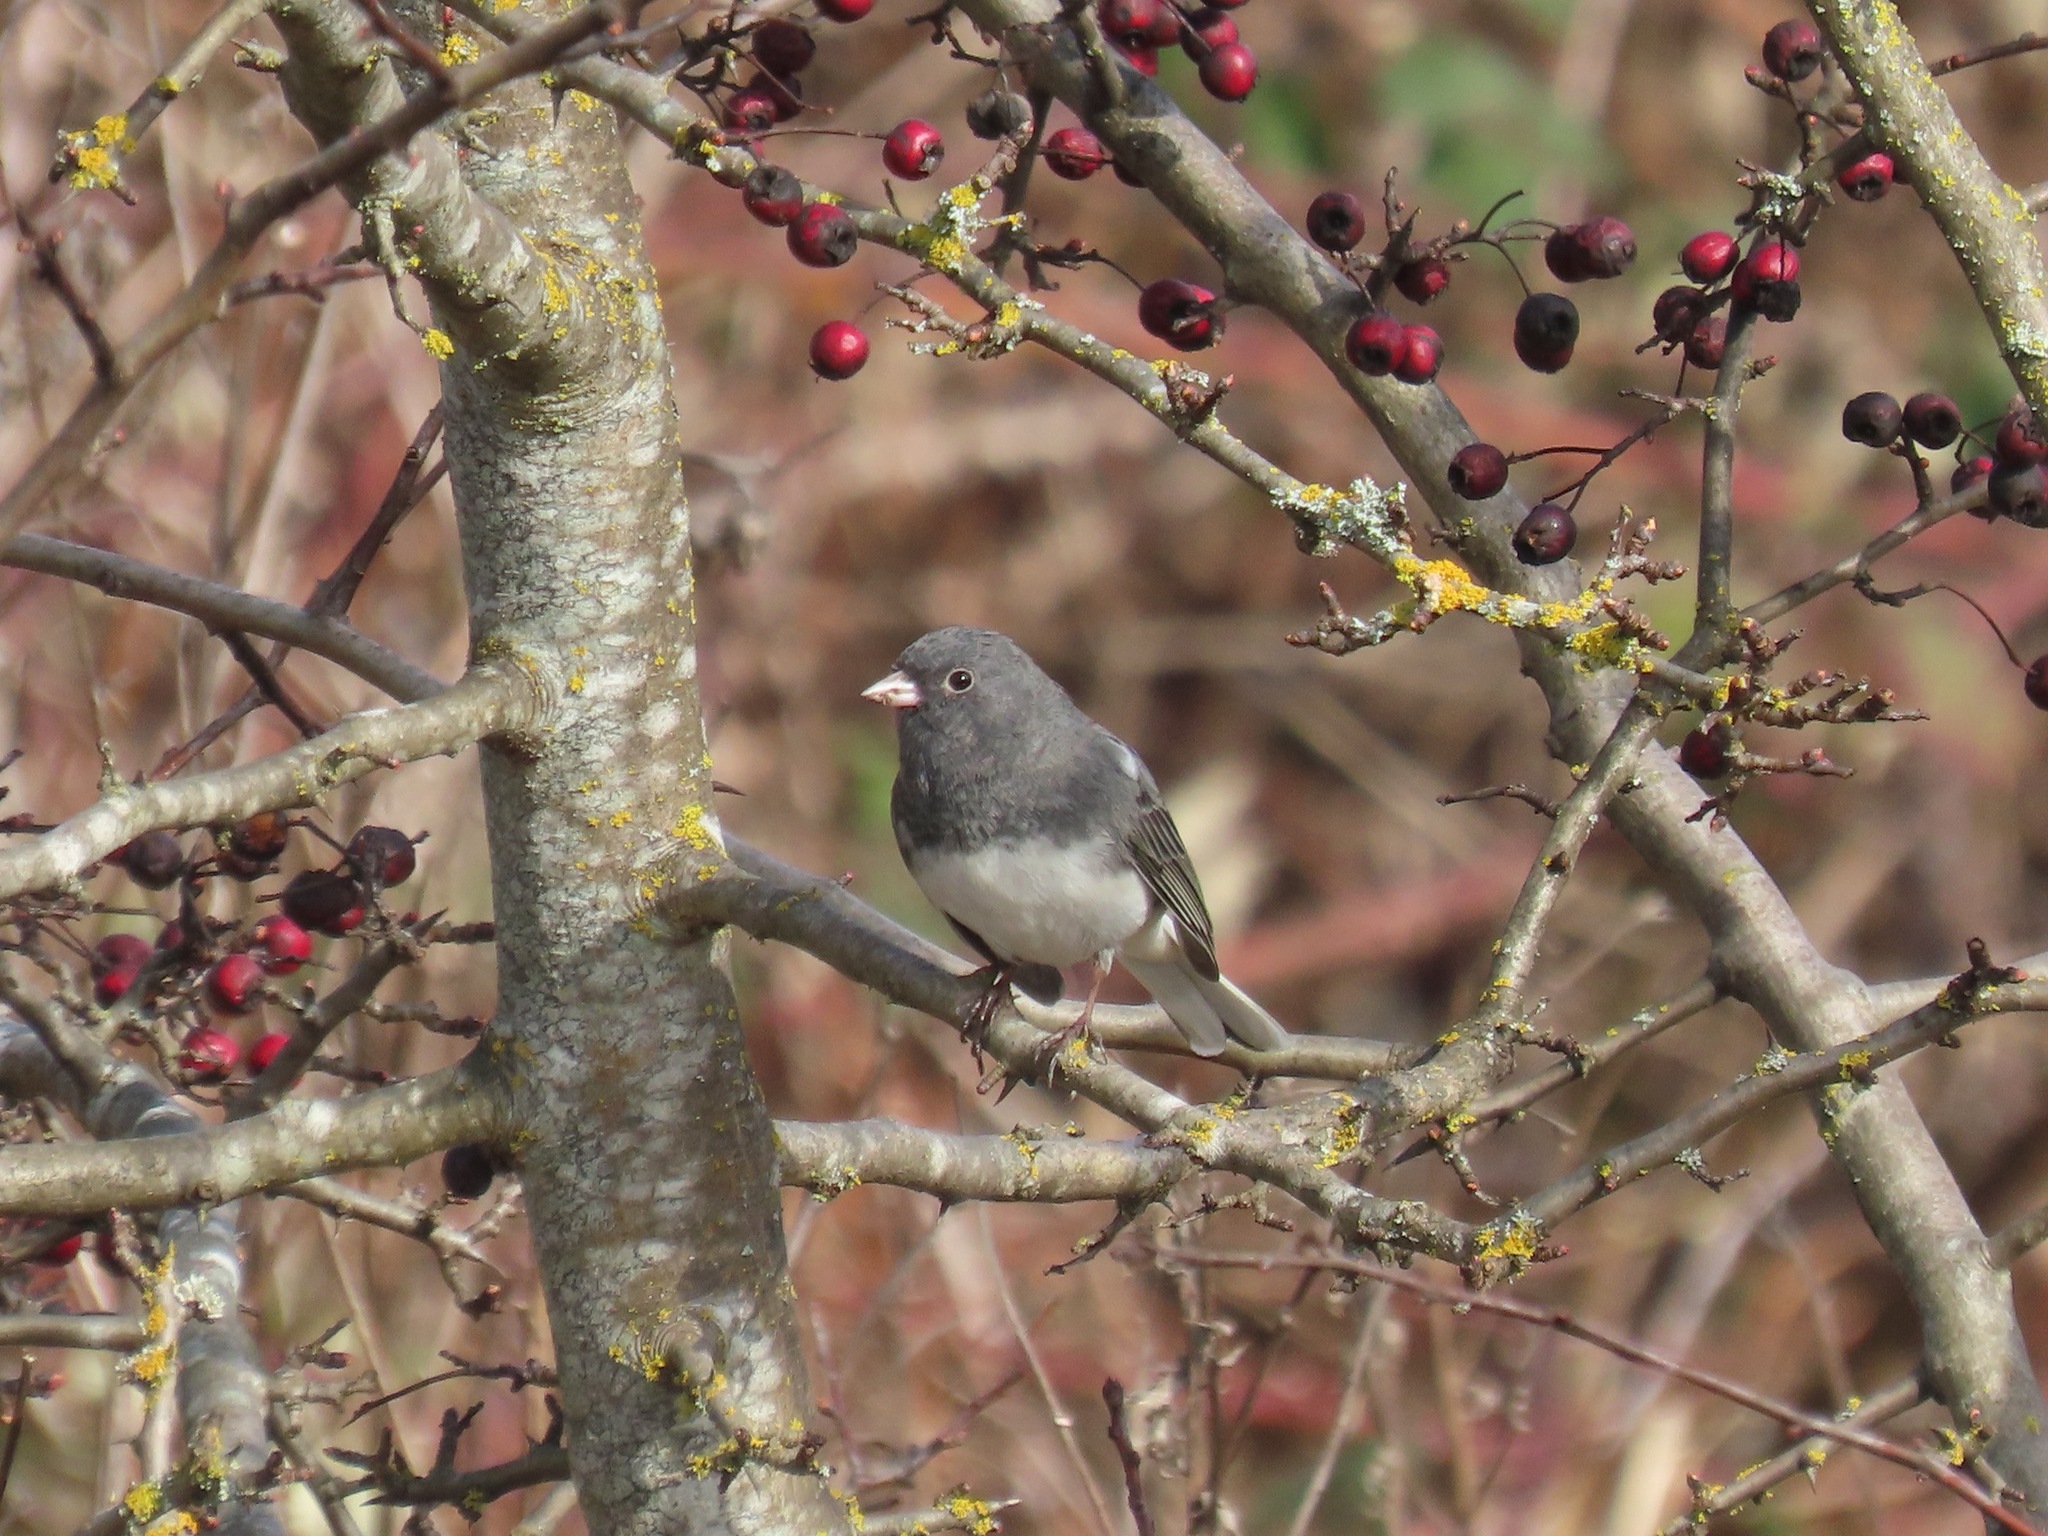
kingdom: Animalia
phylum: Chordata
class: Aves
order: Passeriformes
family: Passerellidae
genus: Junco
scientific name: Junco hyemalis
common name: Dark-eyed junco
